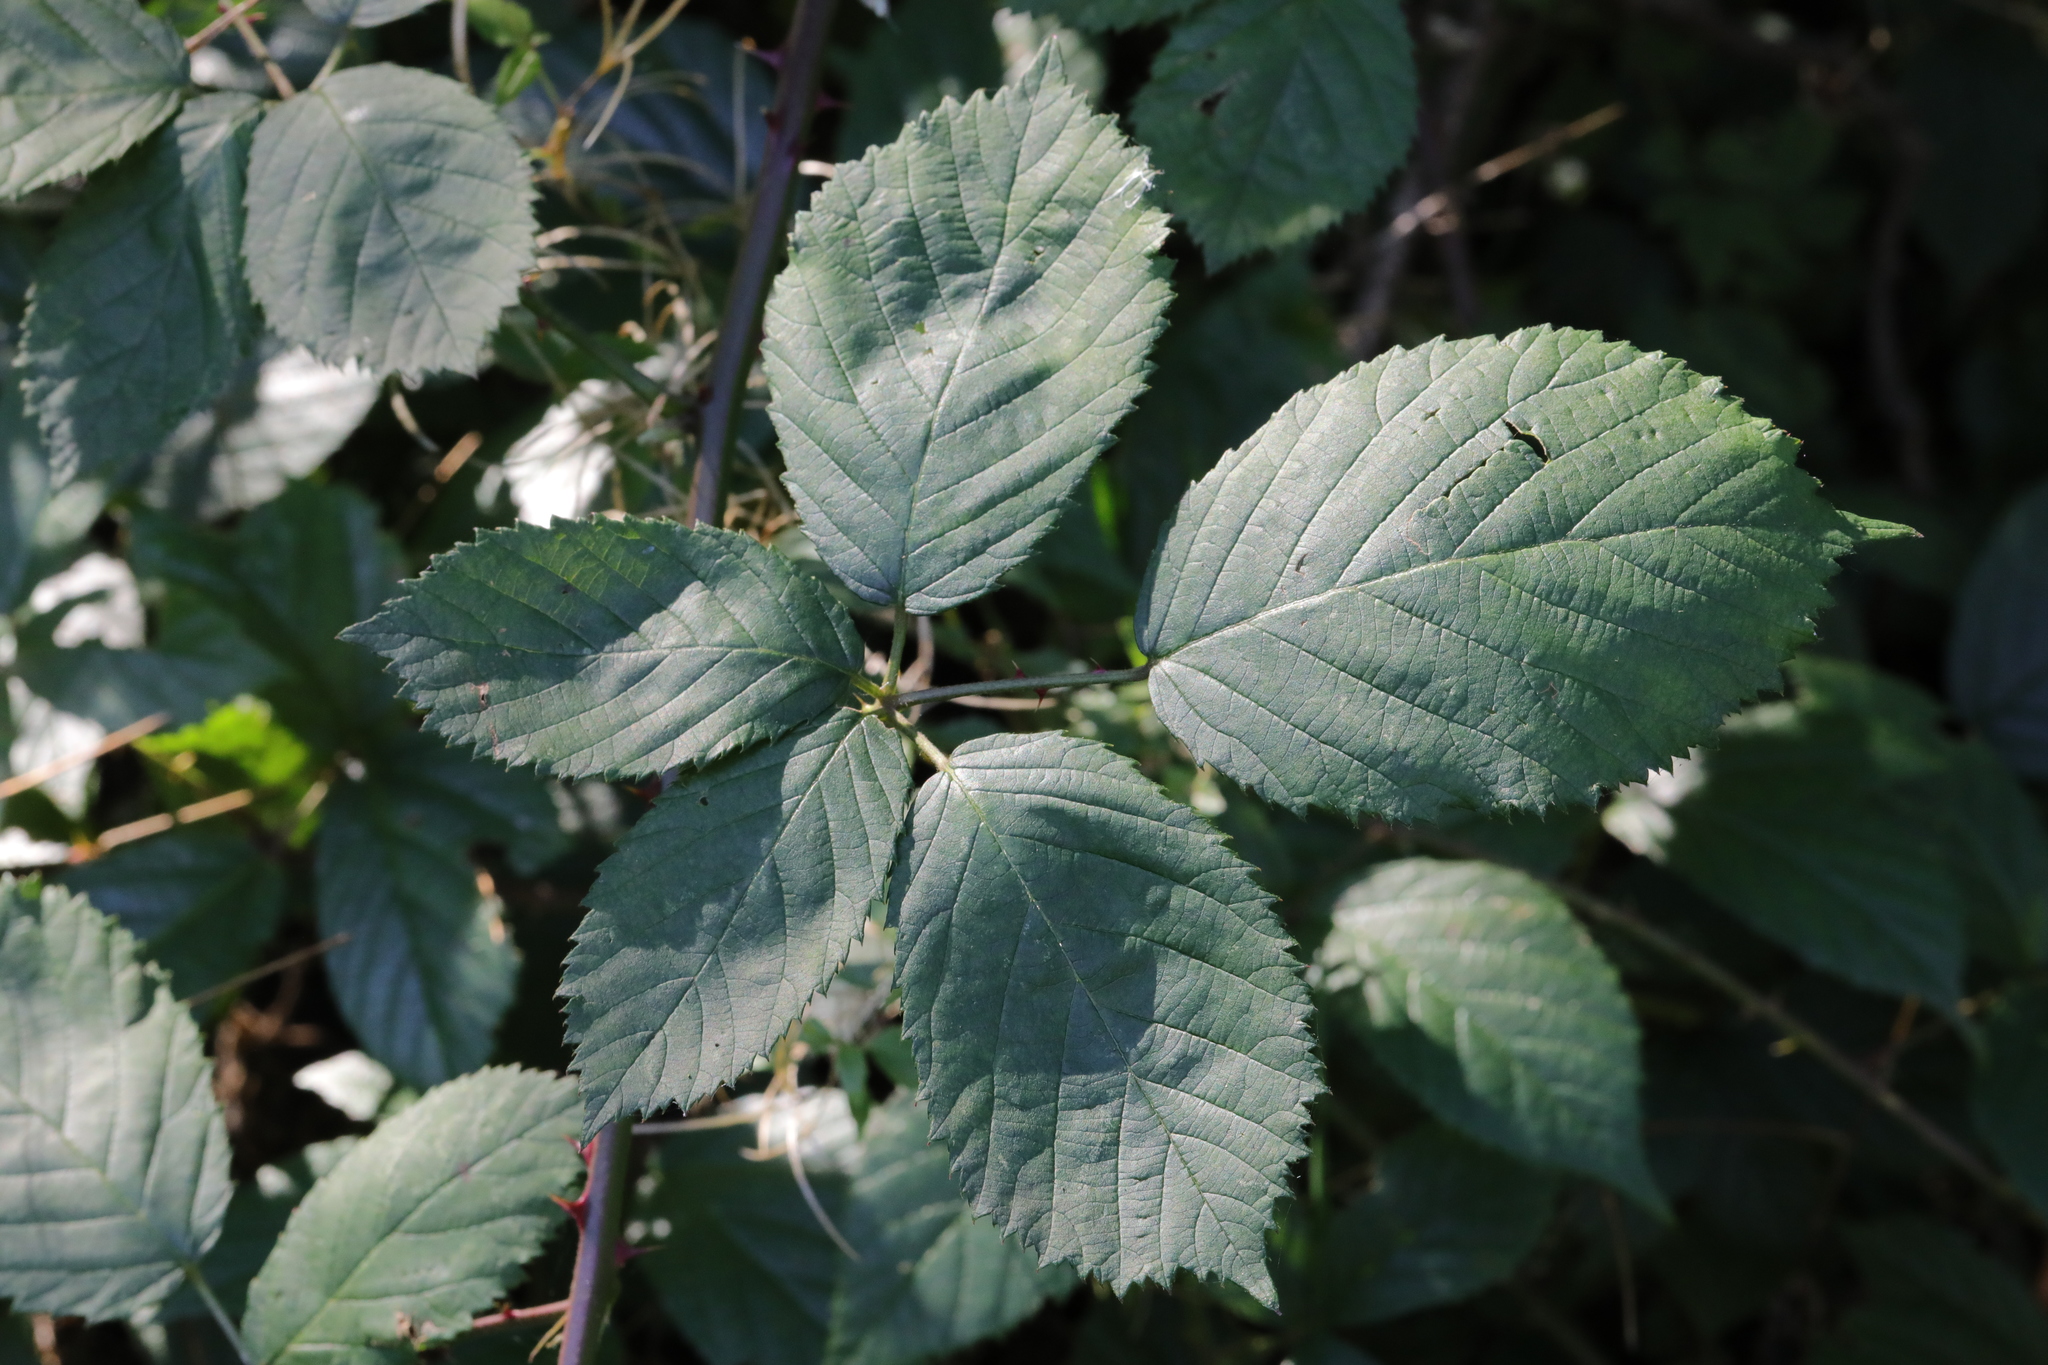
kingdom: Plantae
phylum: Tracheophyta
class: Magnoliopsida
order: Rosales
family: Rosaceae
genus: Rubus
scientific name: Rubus armeniacus
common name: Himalayan blackberry
